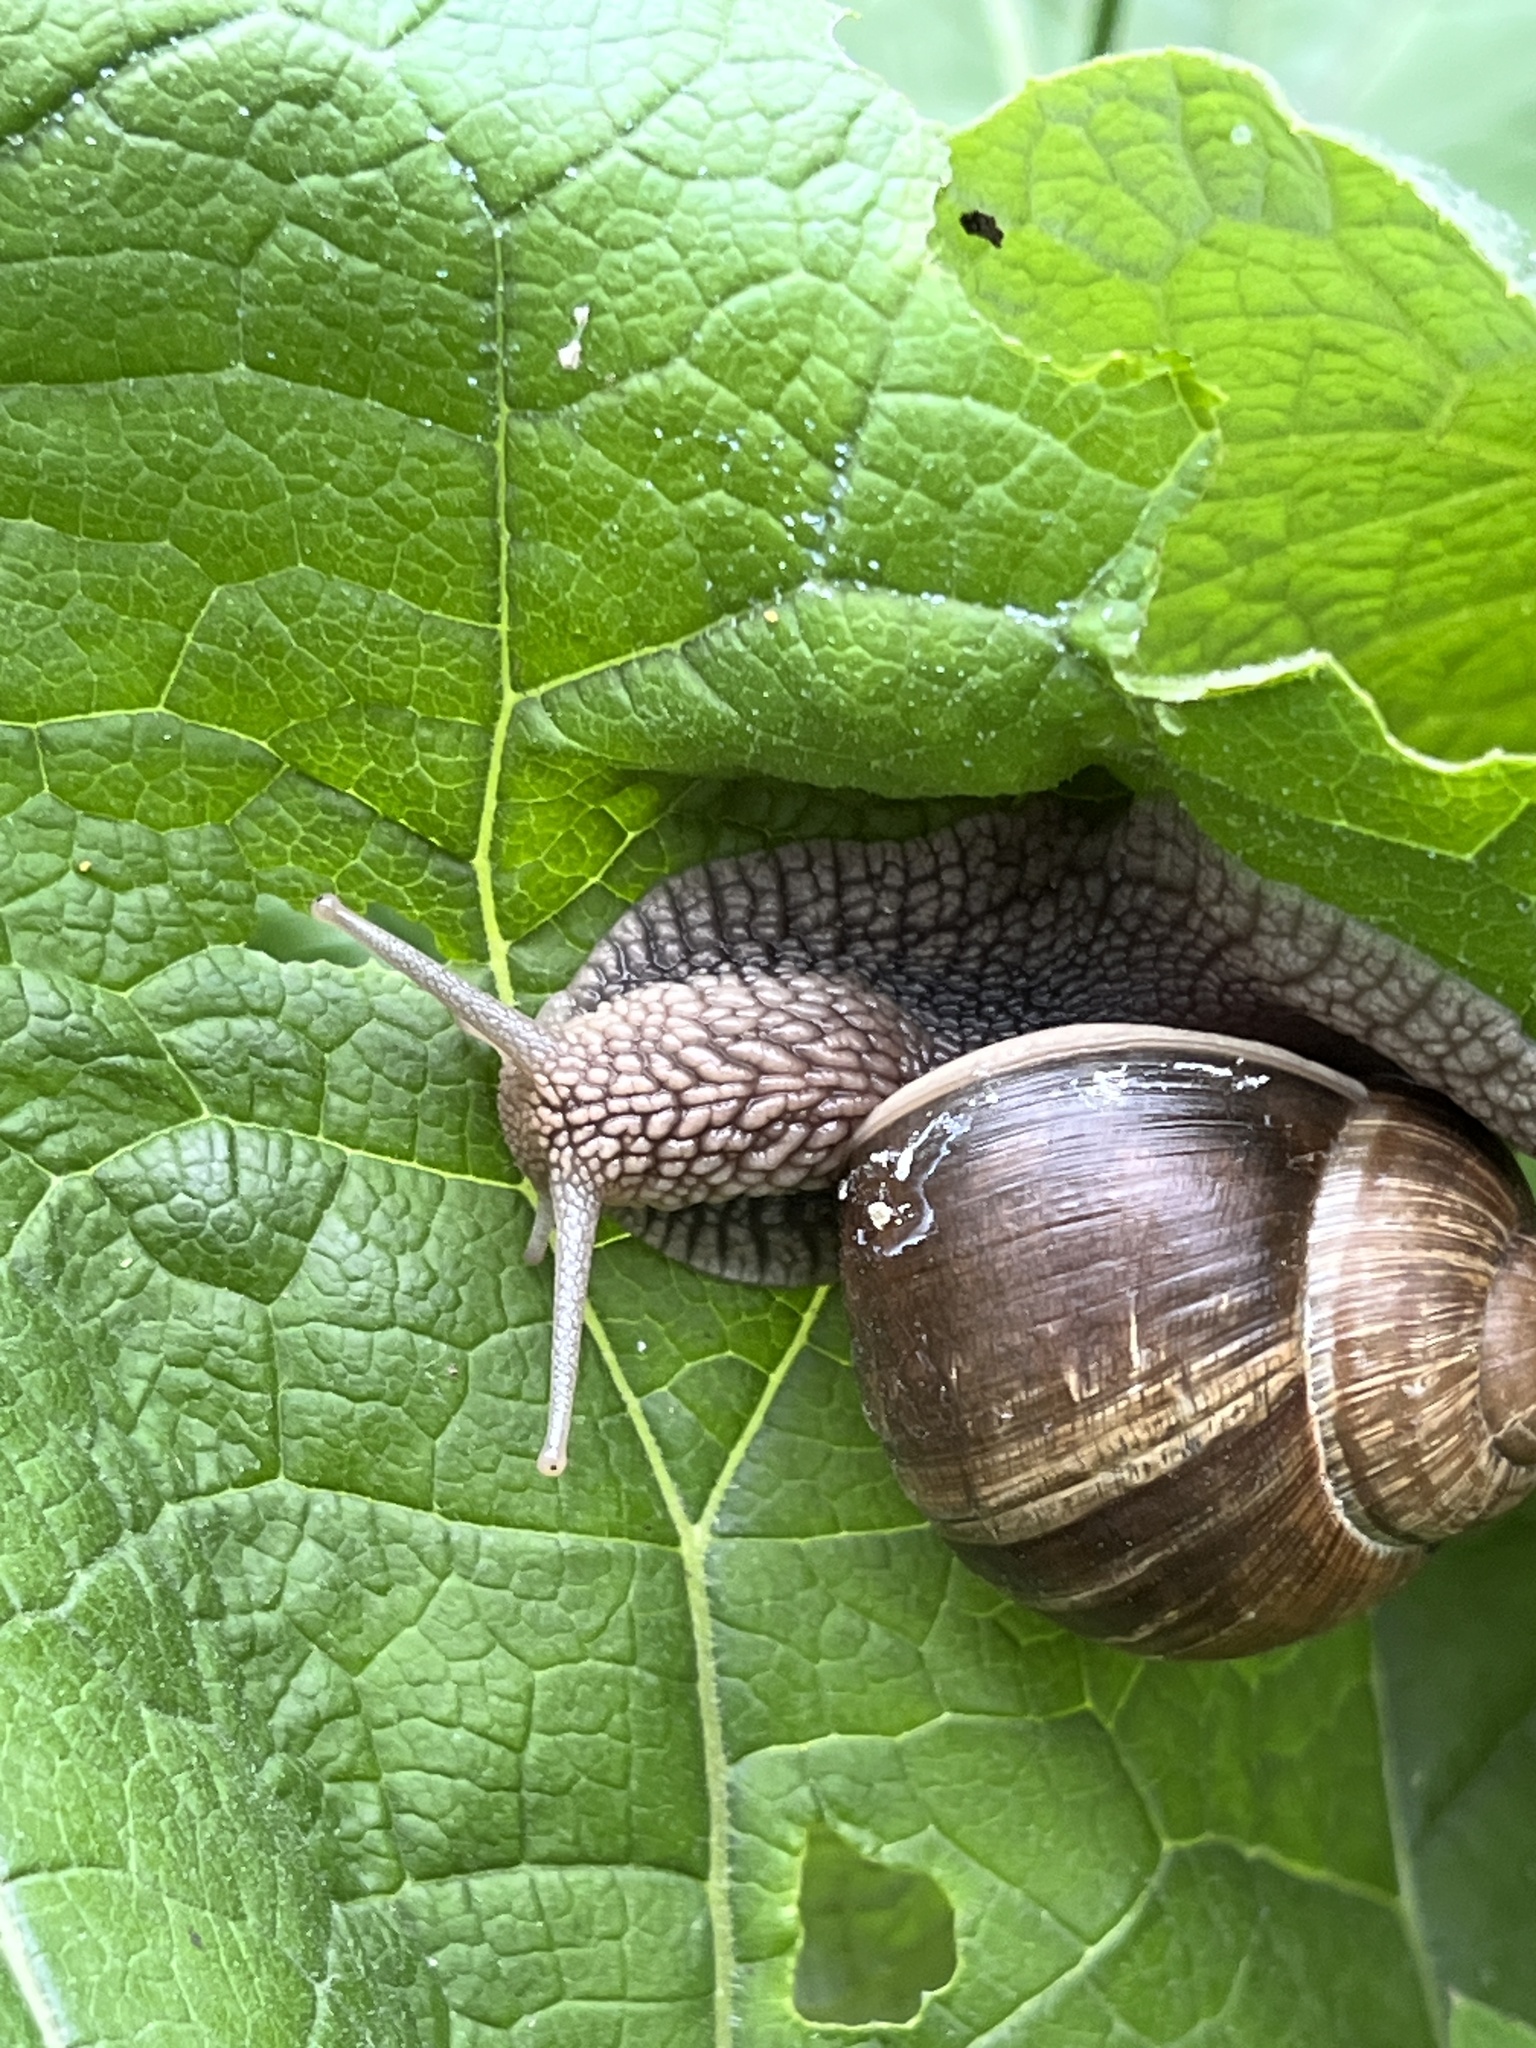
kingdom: Animalia
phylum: Mollusca
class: Gastropoda
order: Stylommatophora
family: Helicidae
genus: Helix
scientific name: Helix pomatia
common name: Roman snail
